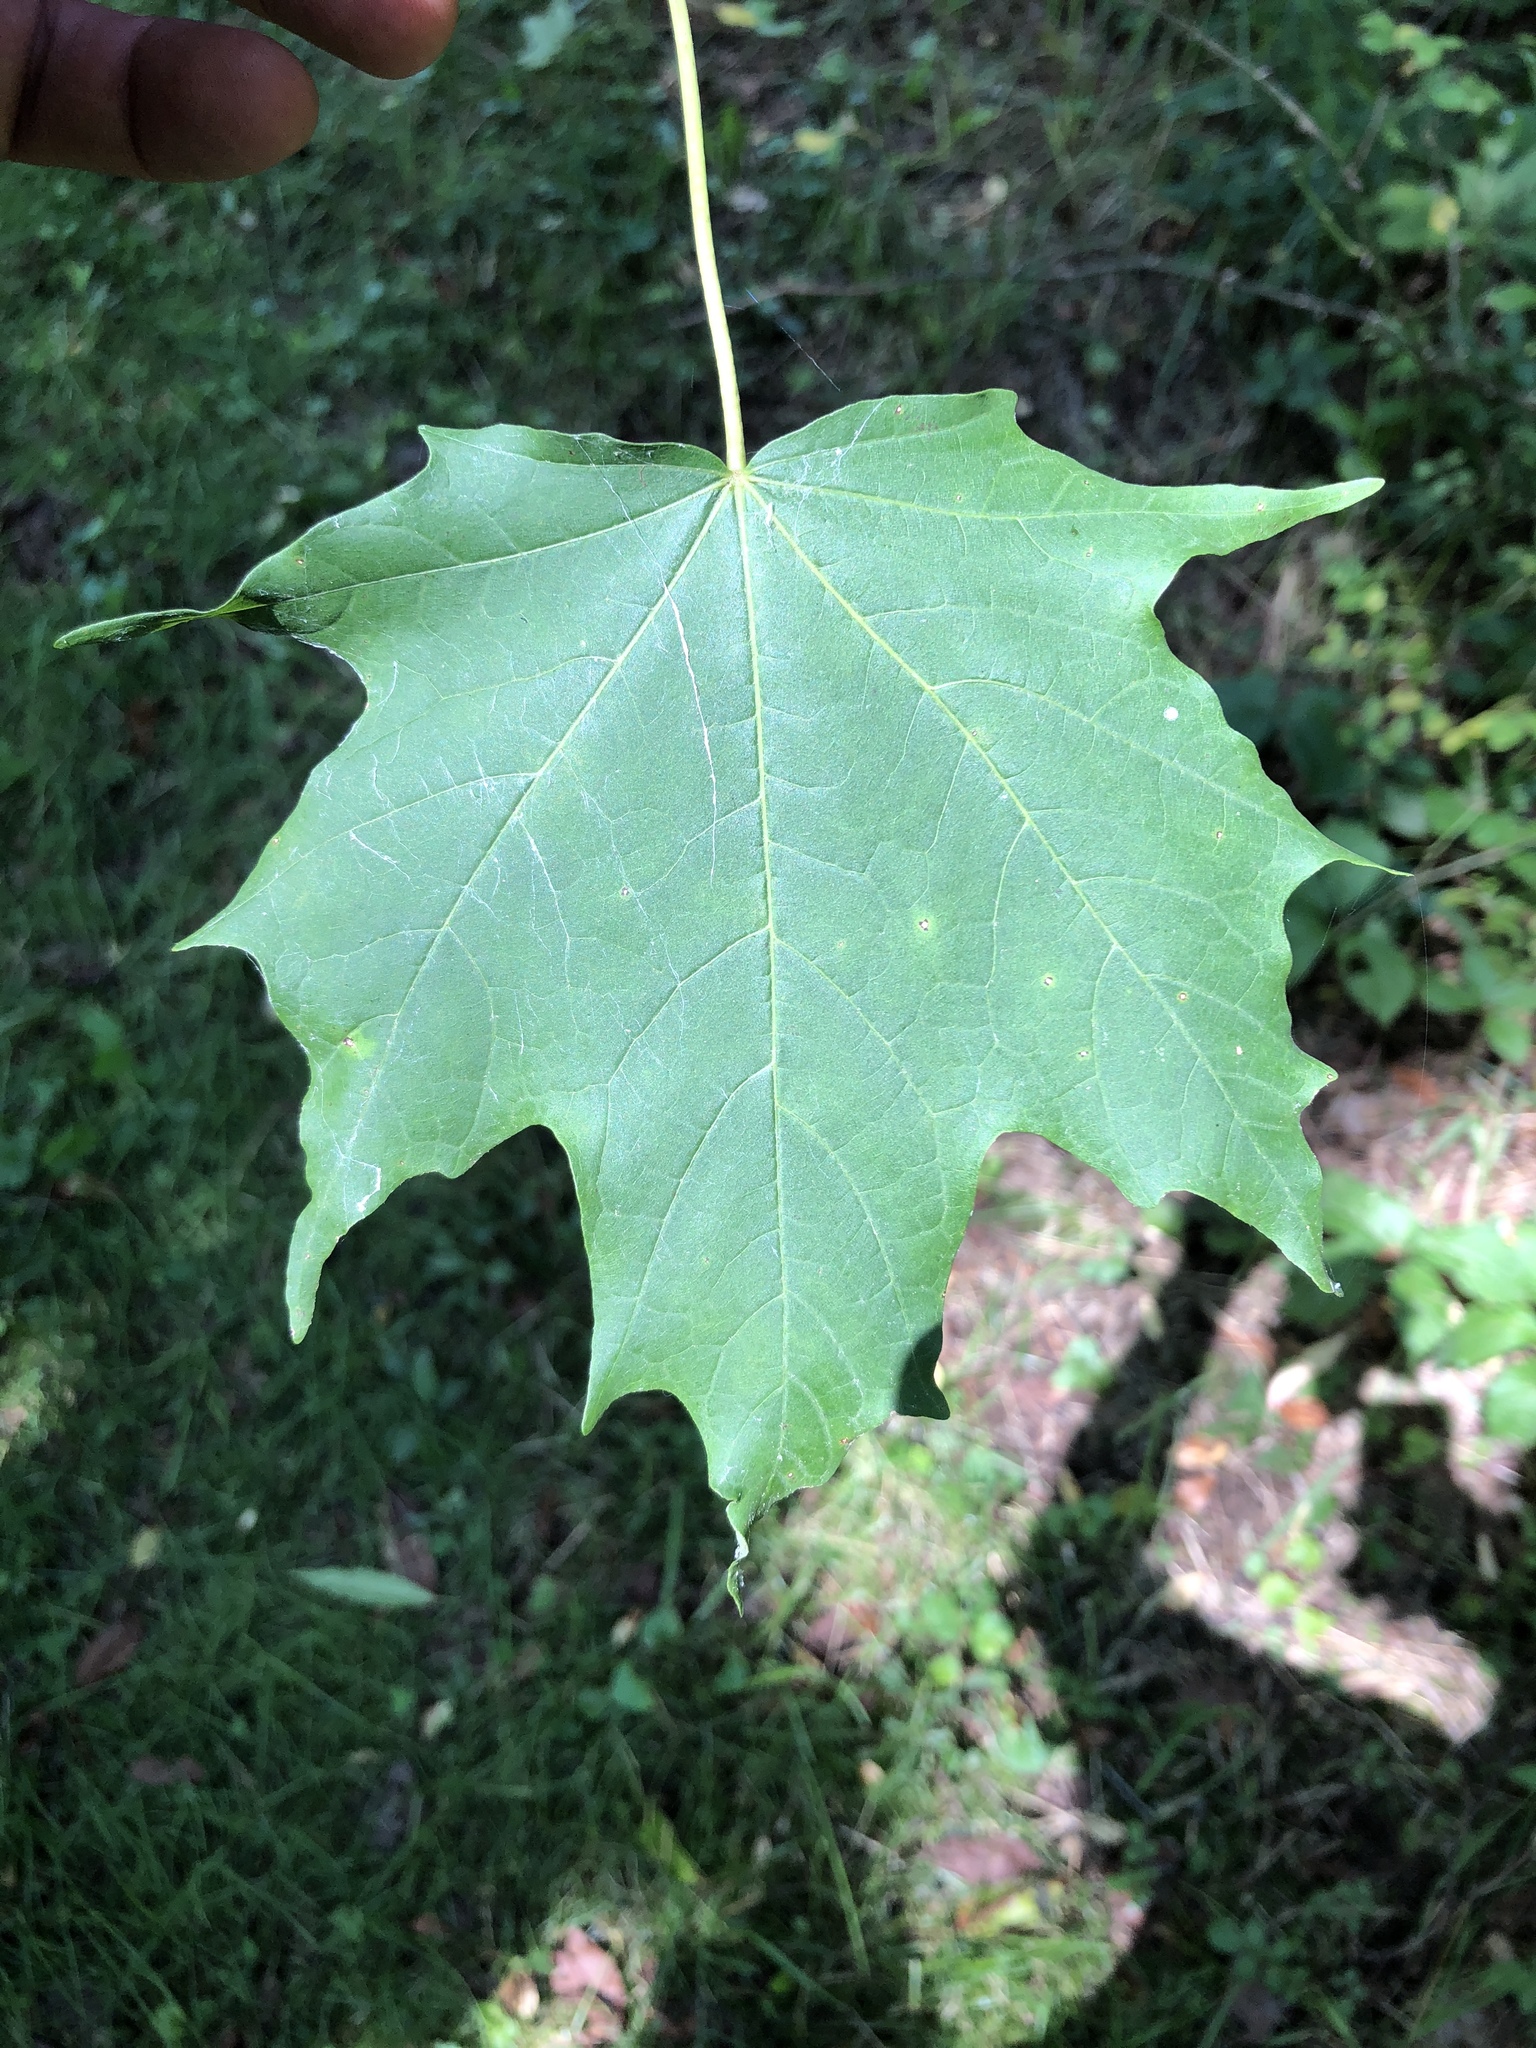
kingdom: Plantae
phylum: Tracheophyta
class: Magnoliopsida
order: Sapindales
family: Sapindaceae
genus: Acer
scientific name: Acer saccharum
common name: Sugar maple
